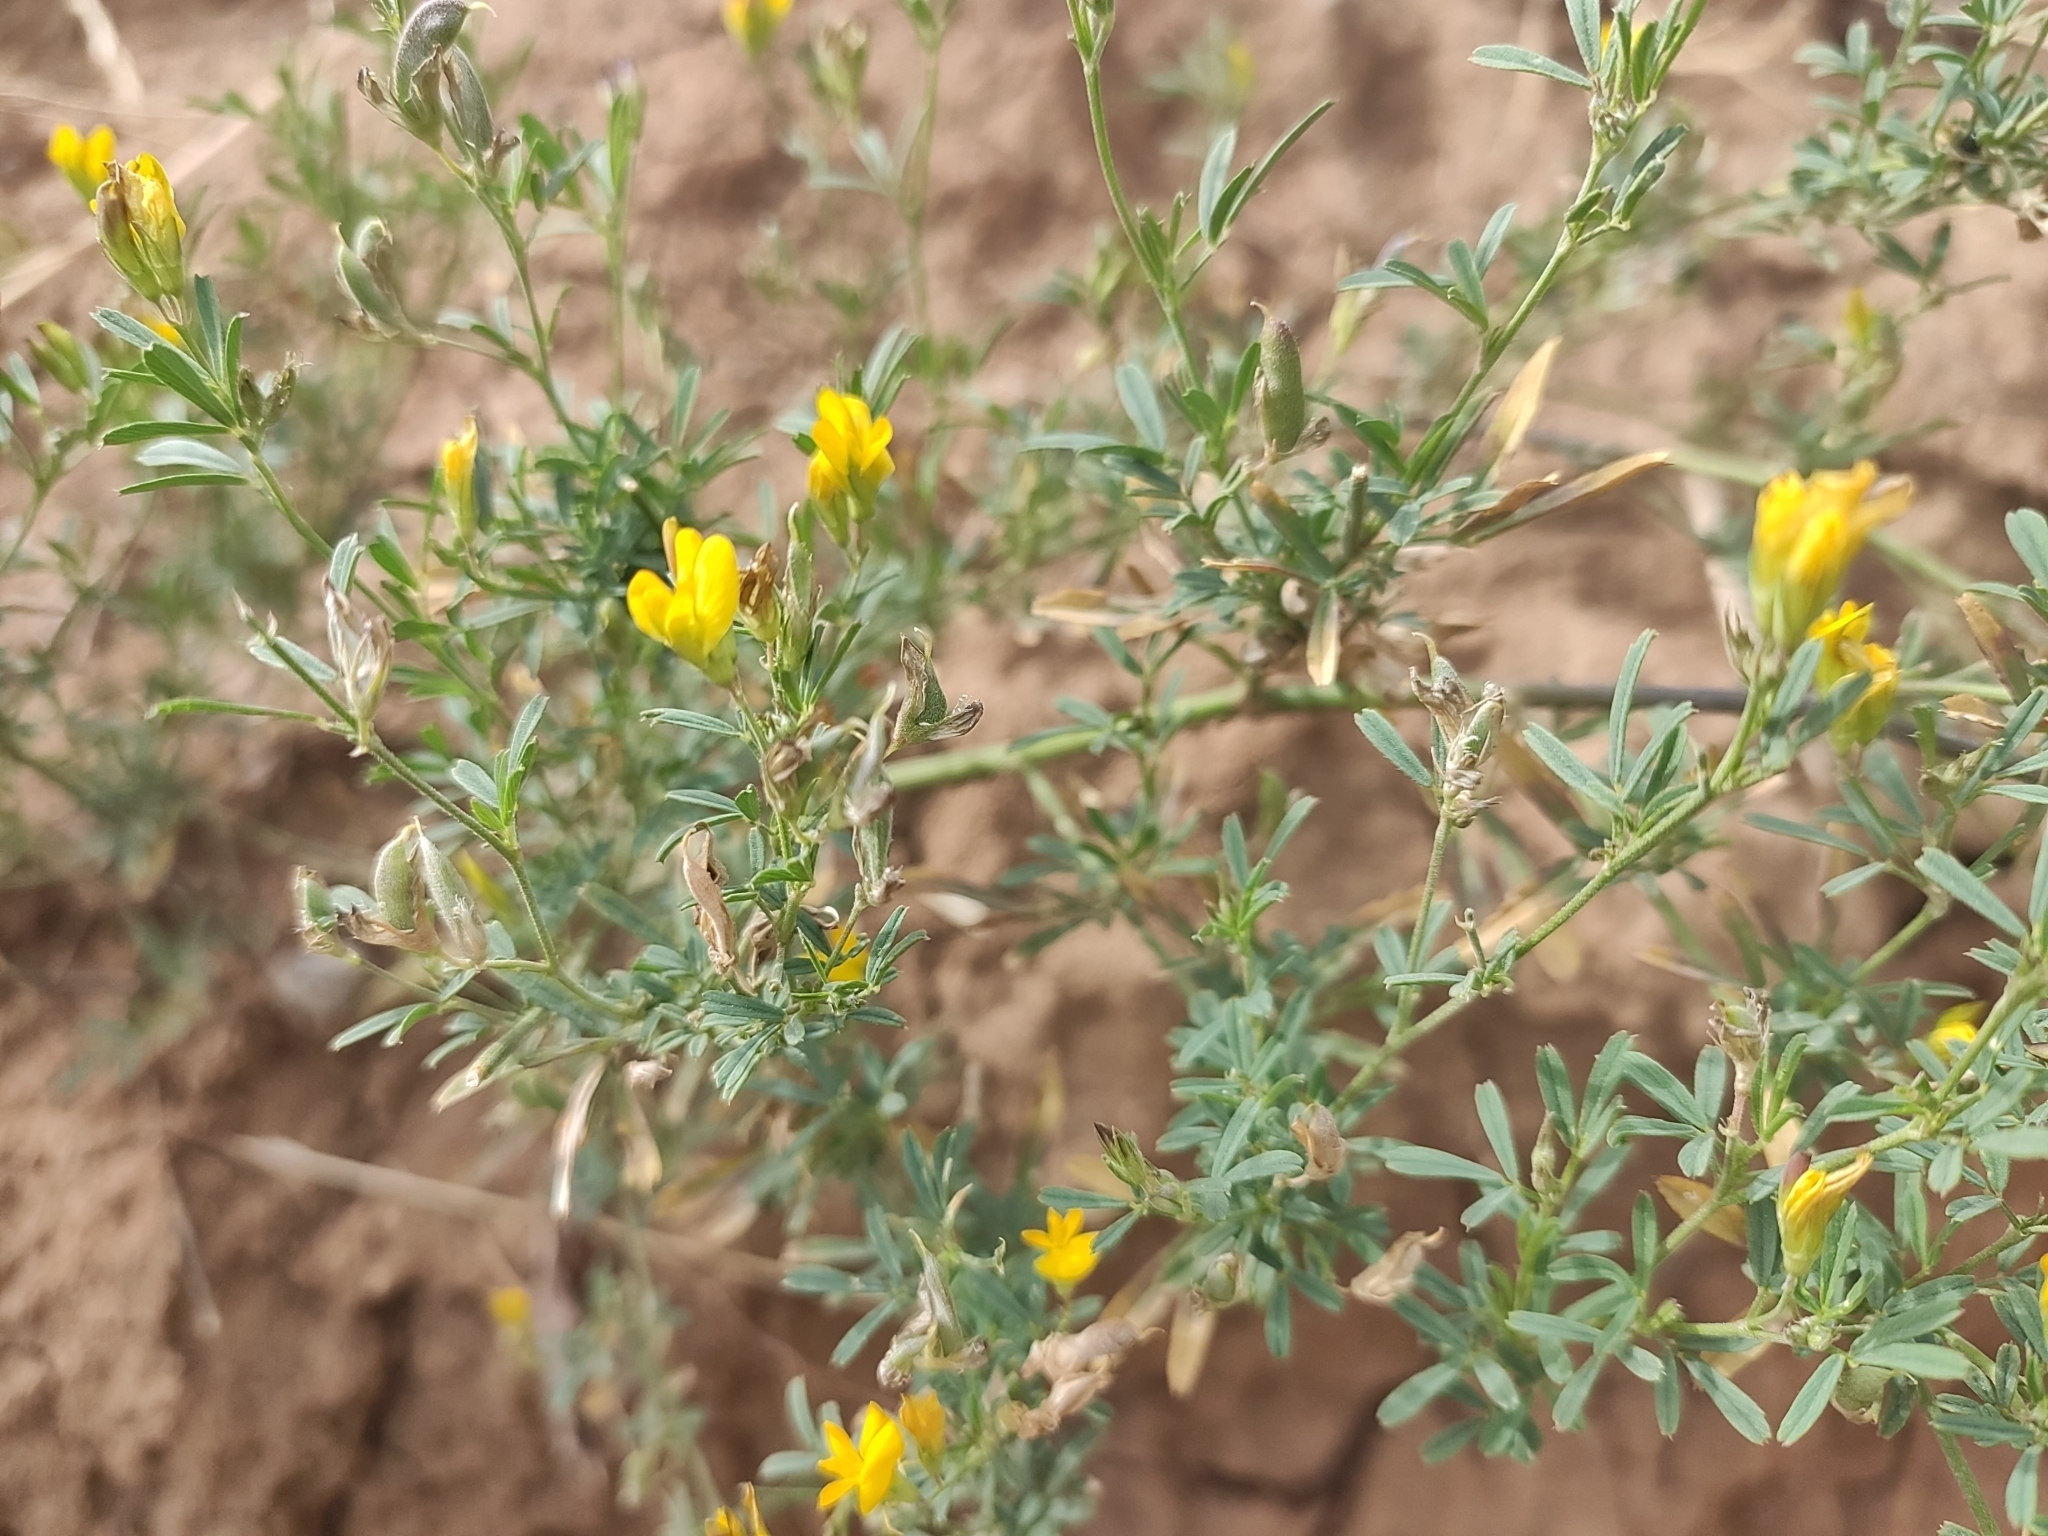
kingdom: Plantae
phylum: Tracheophyta
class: Magnoliopsida
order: Fabales
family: Fabaceae
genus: Medicago
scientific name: Medicago falcata
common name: Sickle medick
